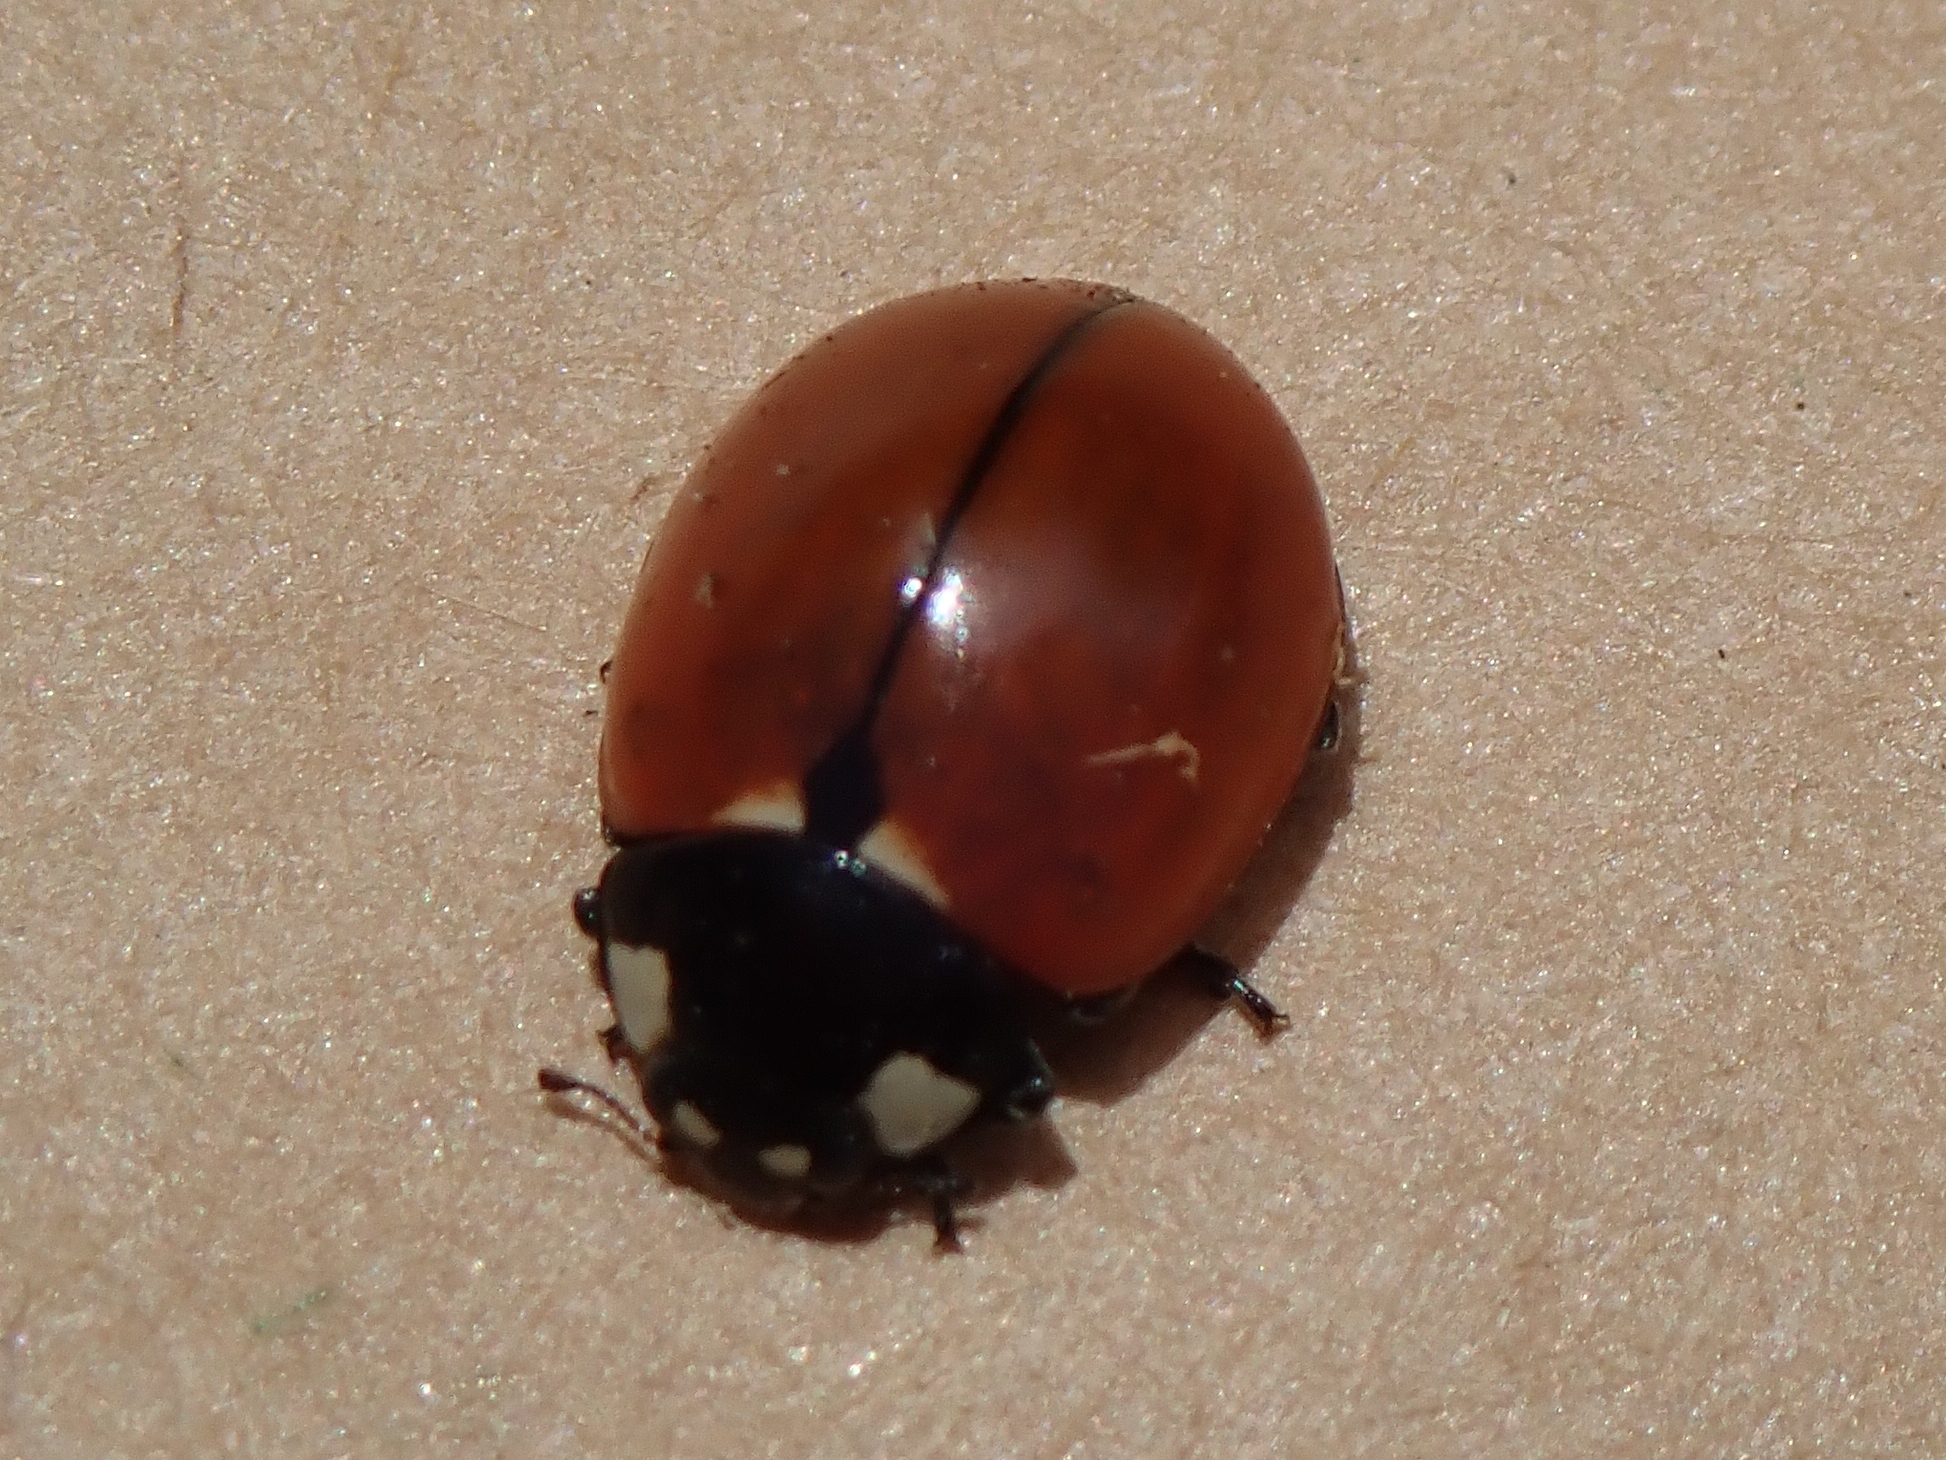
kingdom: Animalia
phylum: Arthropoda
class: Insecta
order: Coleoptera
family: Coccinellidae
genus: Coccinella
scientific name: Coccinella californica
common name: Lady beetle
